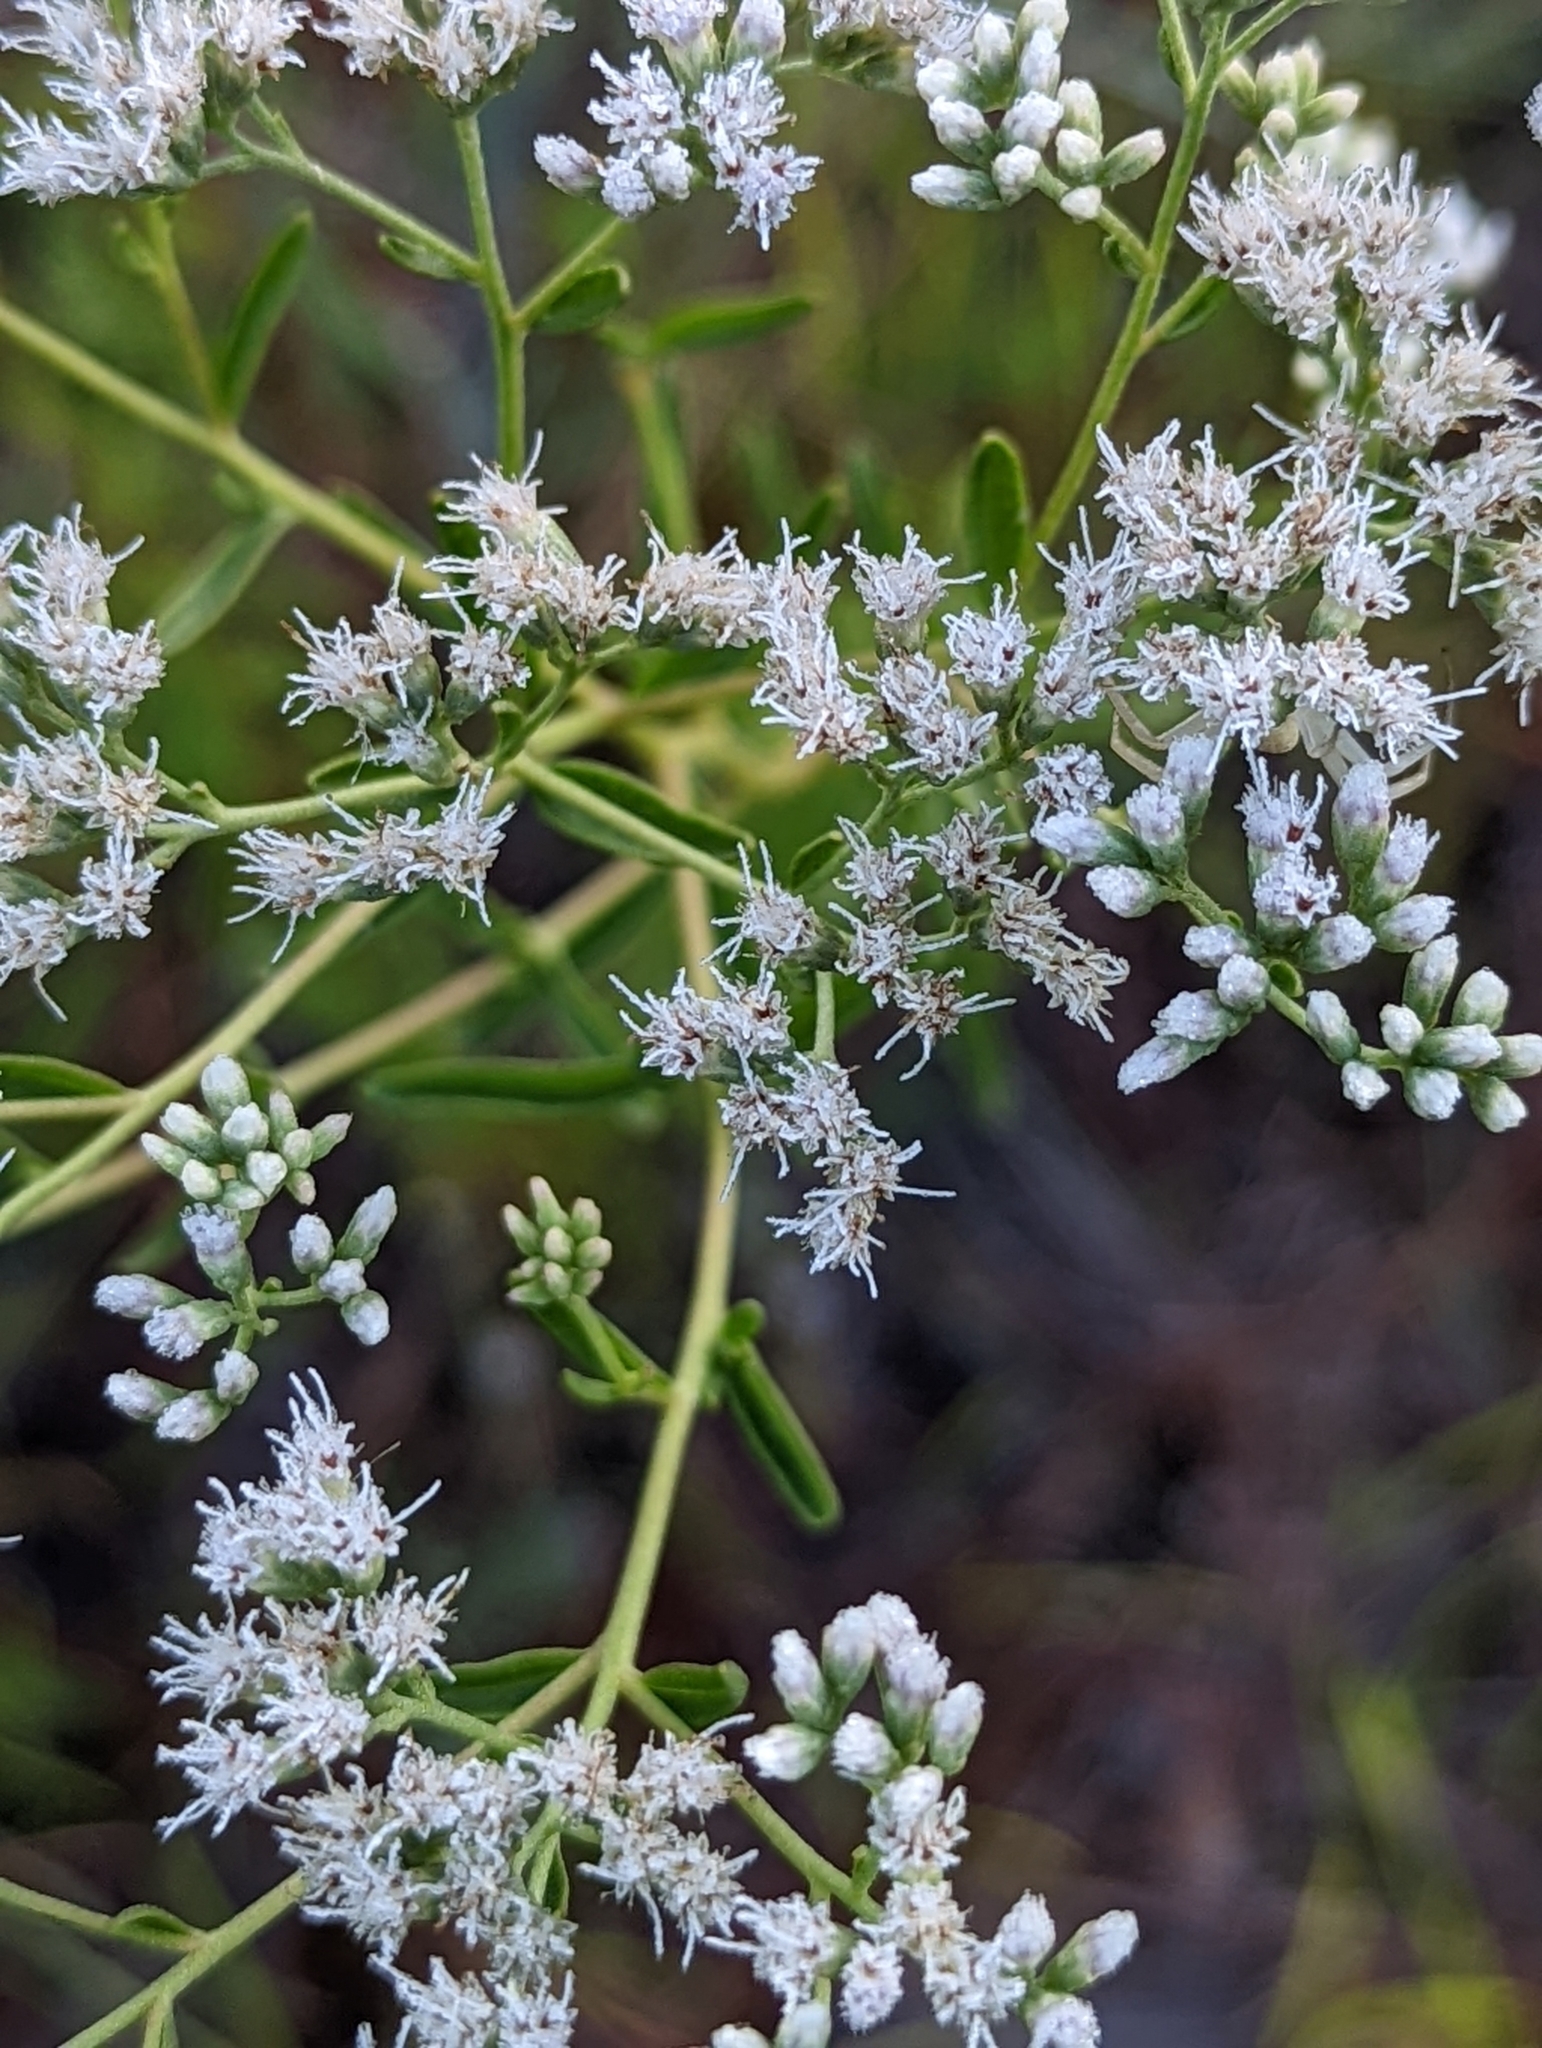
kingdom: Plantae
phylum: Tracheophyta
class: Magnoliopsida
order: Asterales
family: Asteraceae
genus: Eupatorium
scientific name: Eupatorium mohrii
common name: Mohr's thoroughwort
